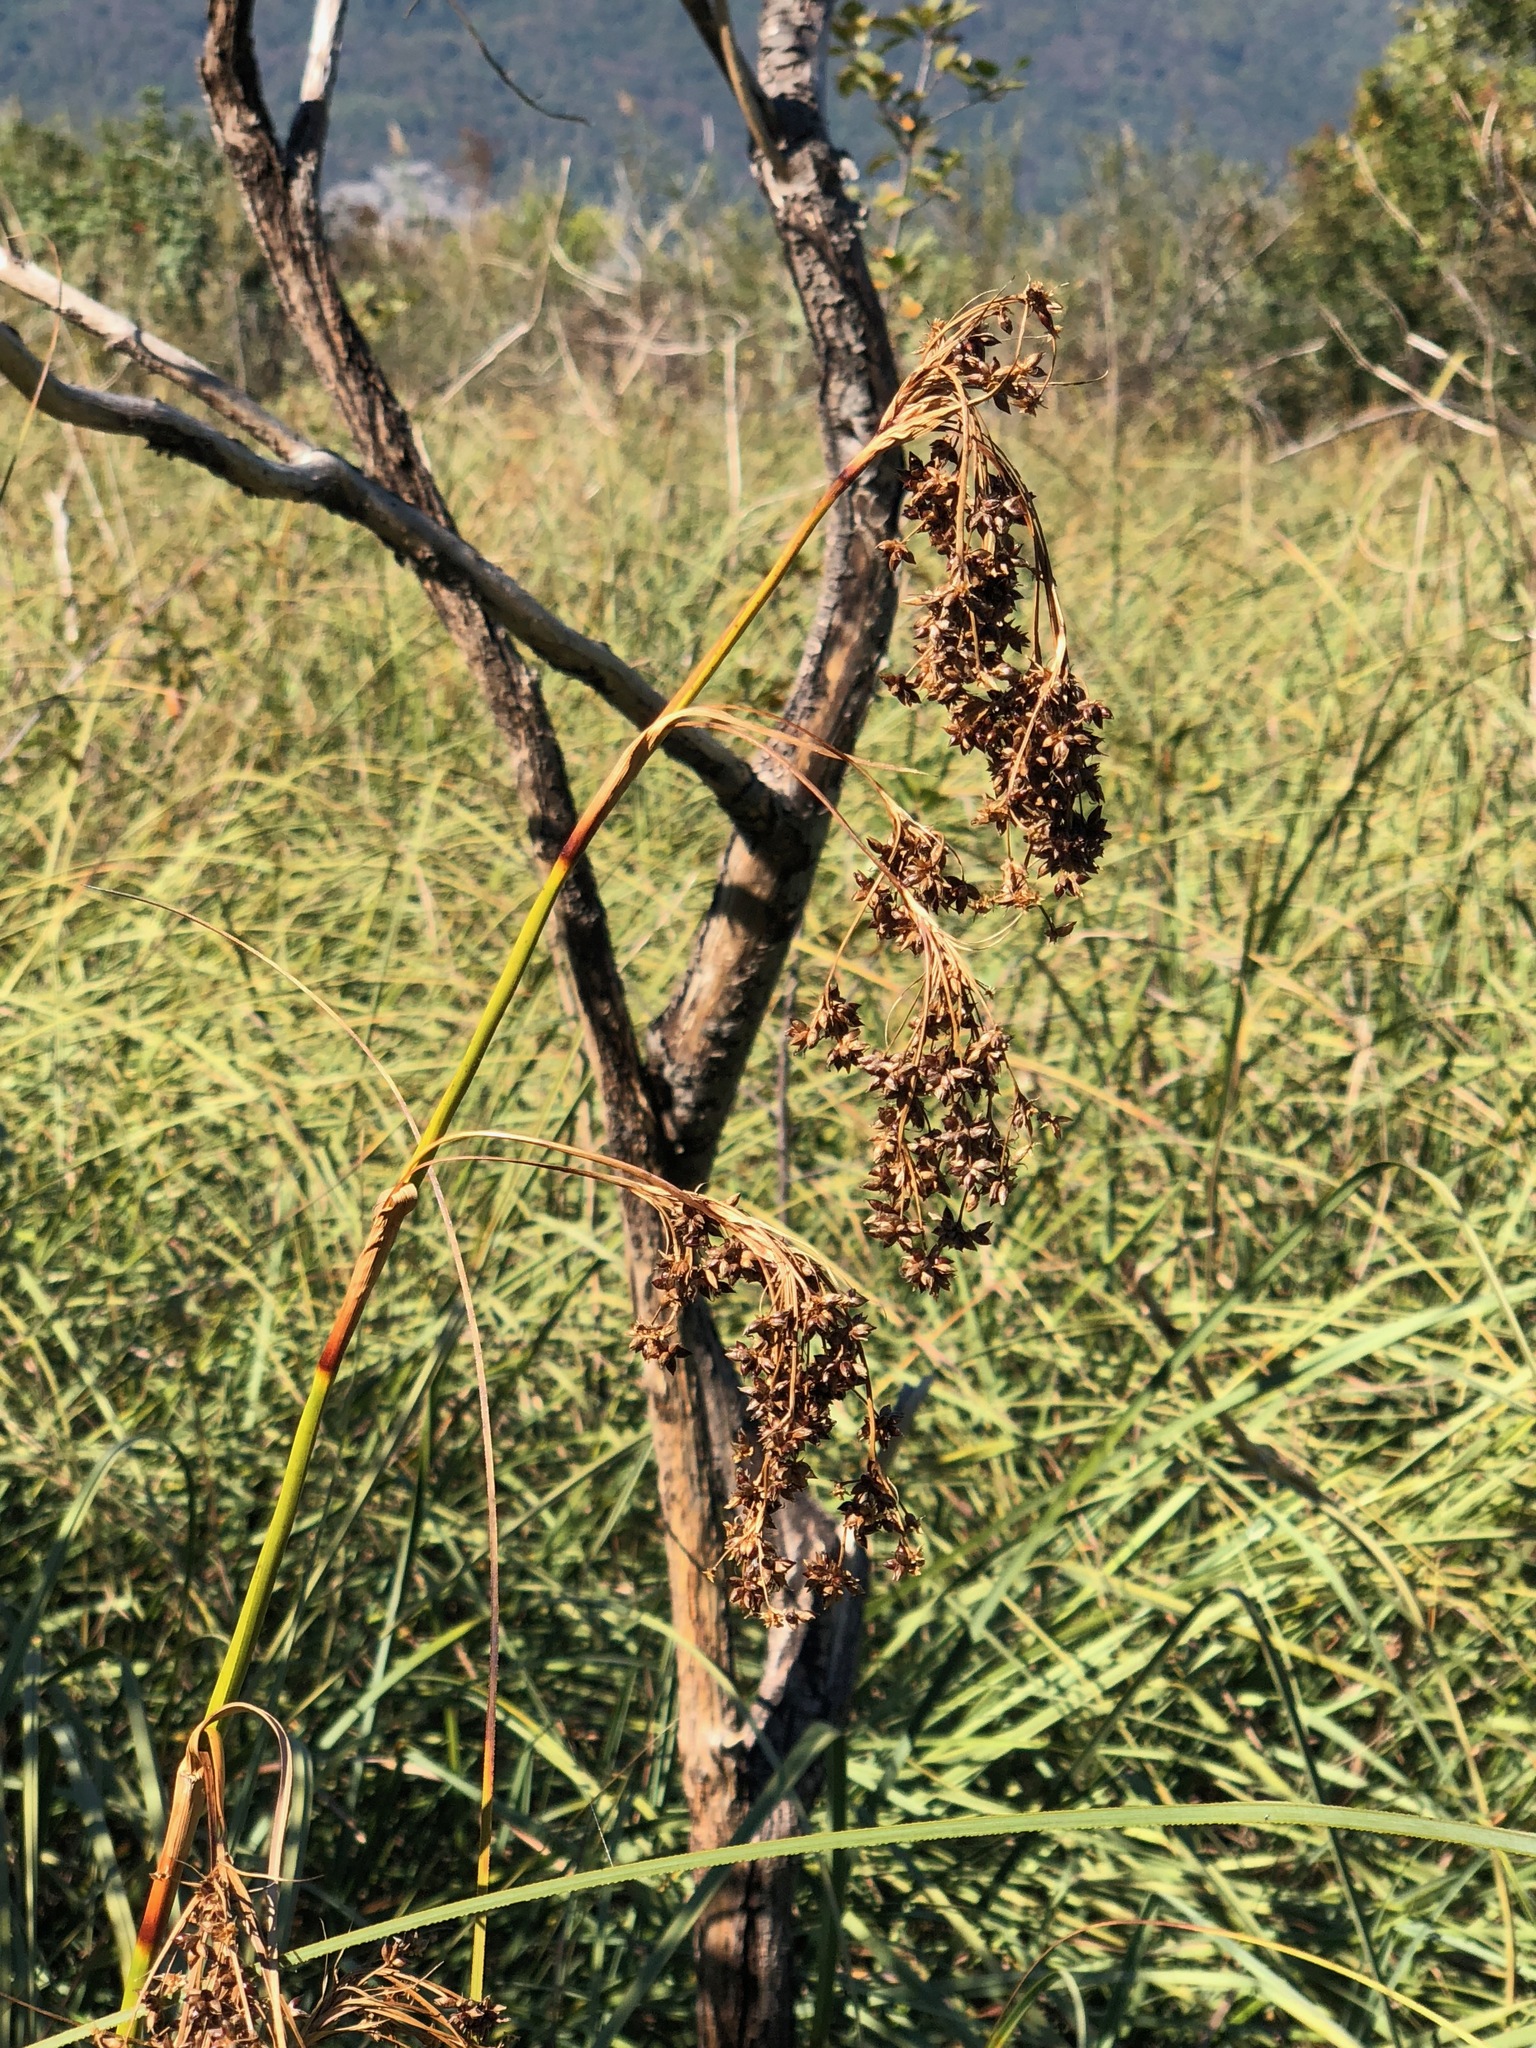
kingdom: Plantae
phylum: Tracheophyta
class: Liliopsida
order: Poales
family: Cyperaceae
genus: Cladium
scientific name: Cladium mariscus
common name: Great fen-sedge
